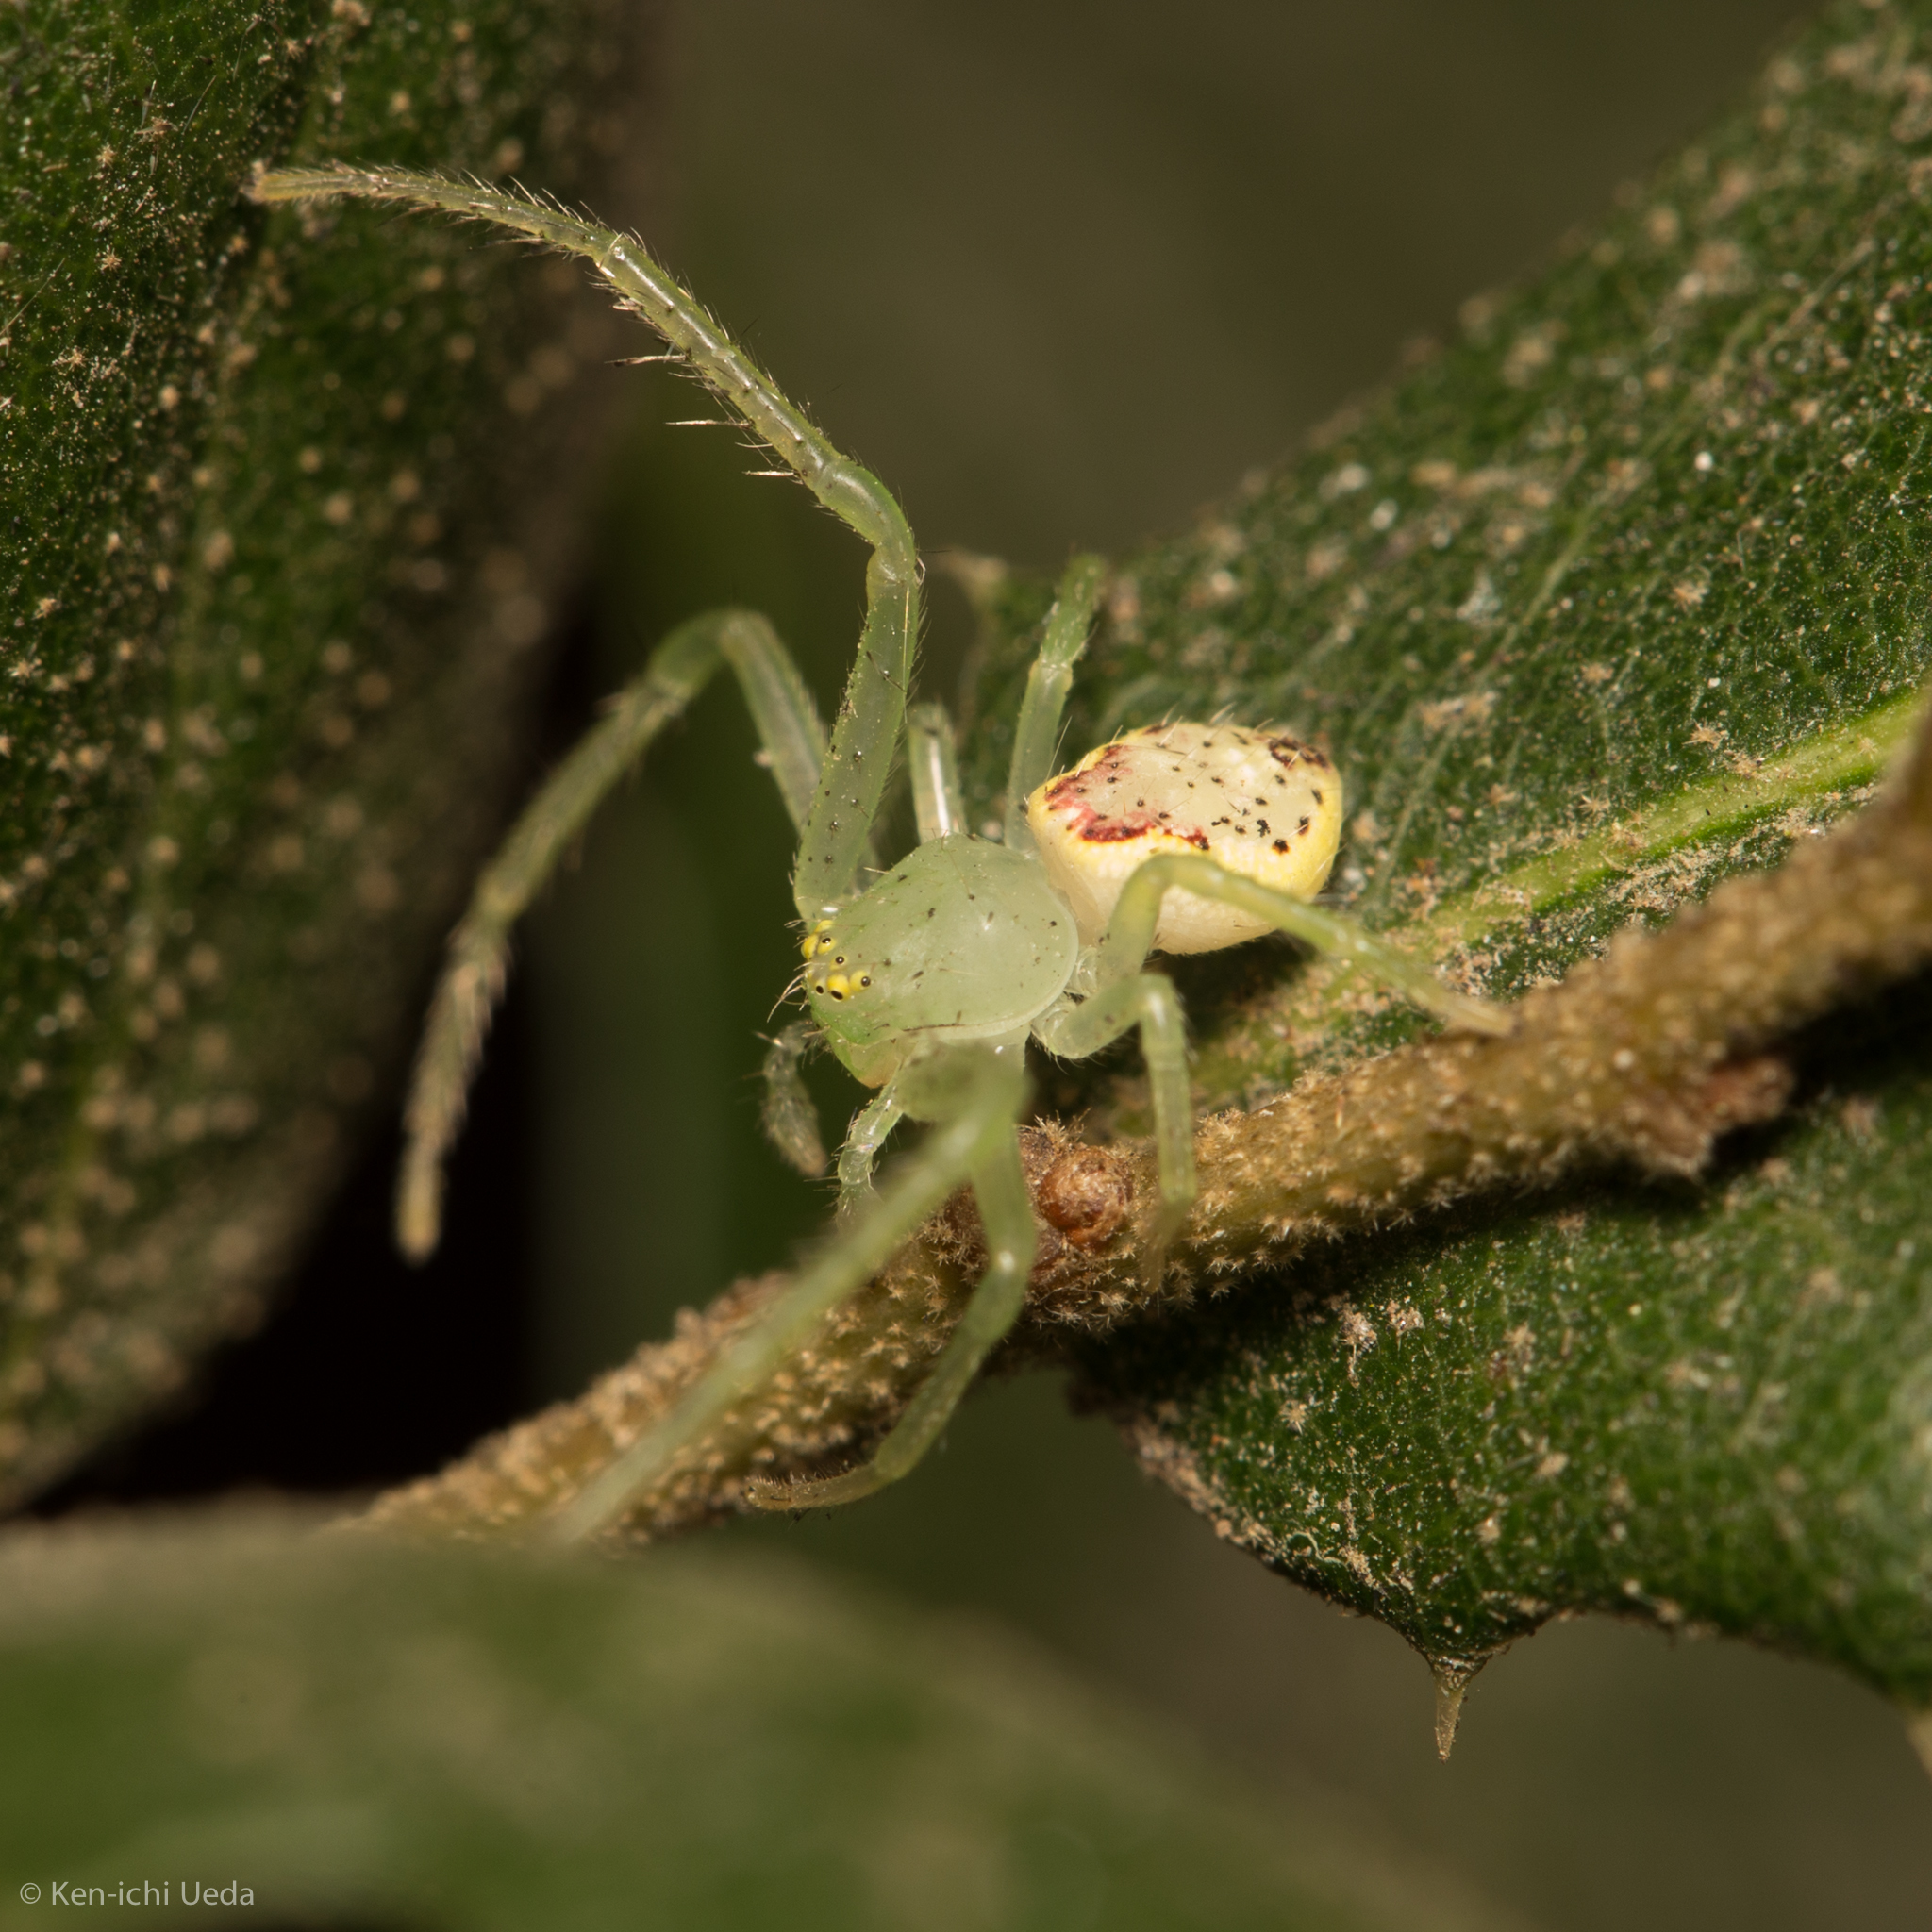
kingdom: Animalia
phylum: Arthropoda
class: Arachnida
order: Araneae
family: Thomisidae
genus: Diaea
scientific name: Diaea livens
